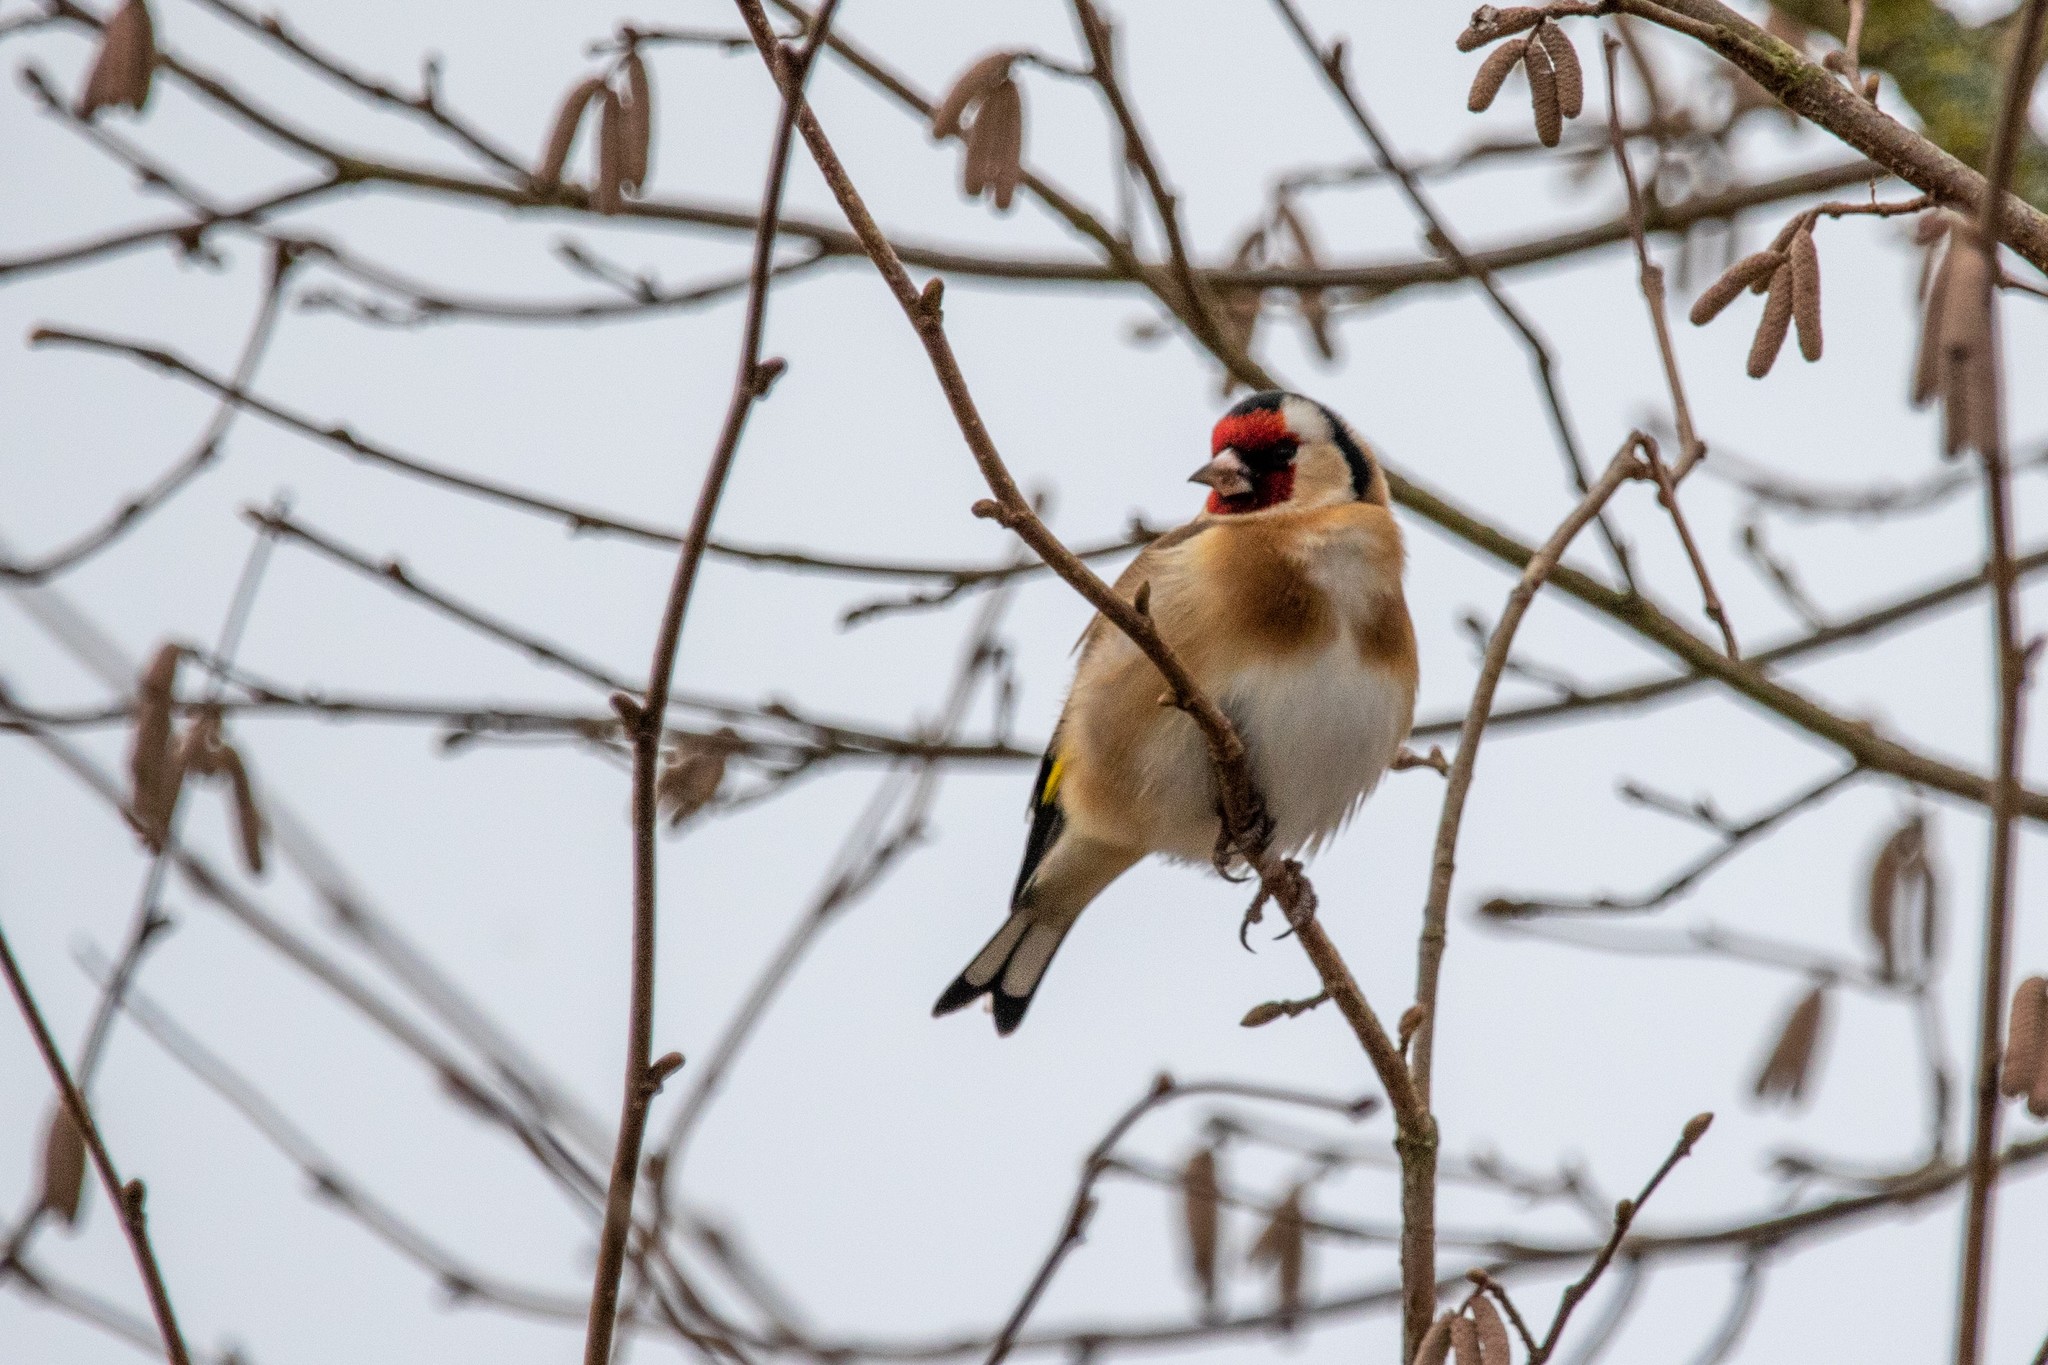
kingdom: Animalia
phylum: Chordata
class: Aves
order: Passeriformes
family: Fringillidae
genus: Carduelis
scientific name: Carduelis carduelis
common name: European goldfinch
